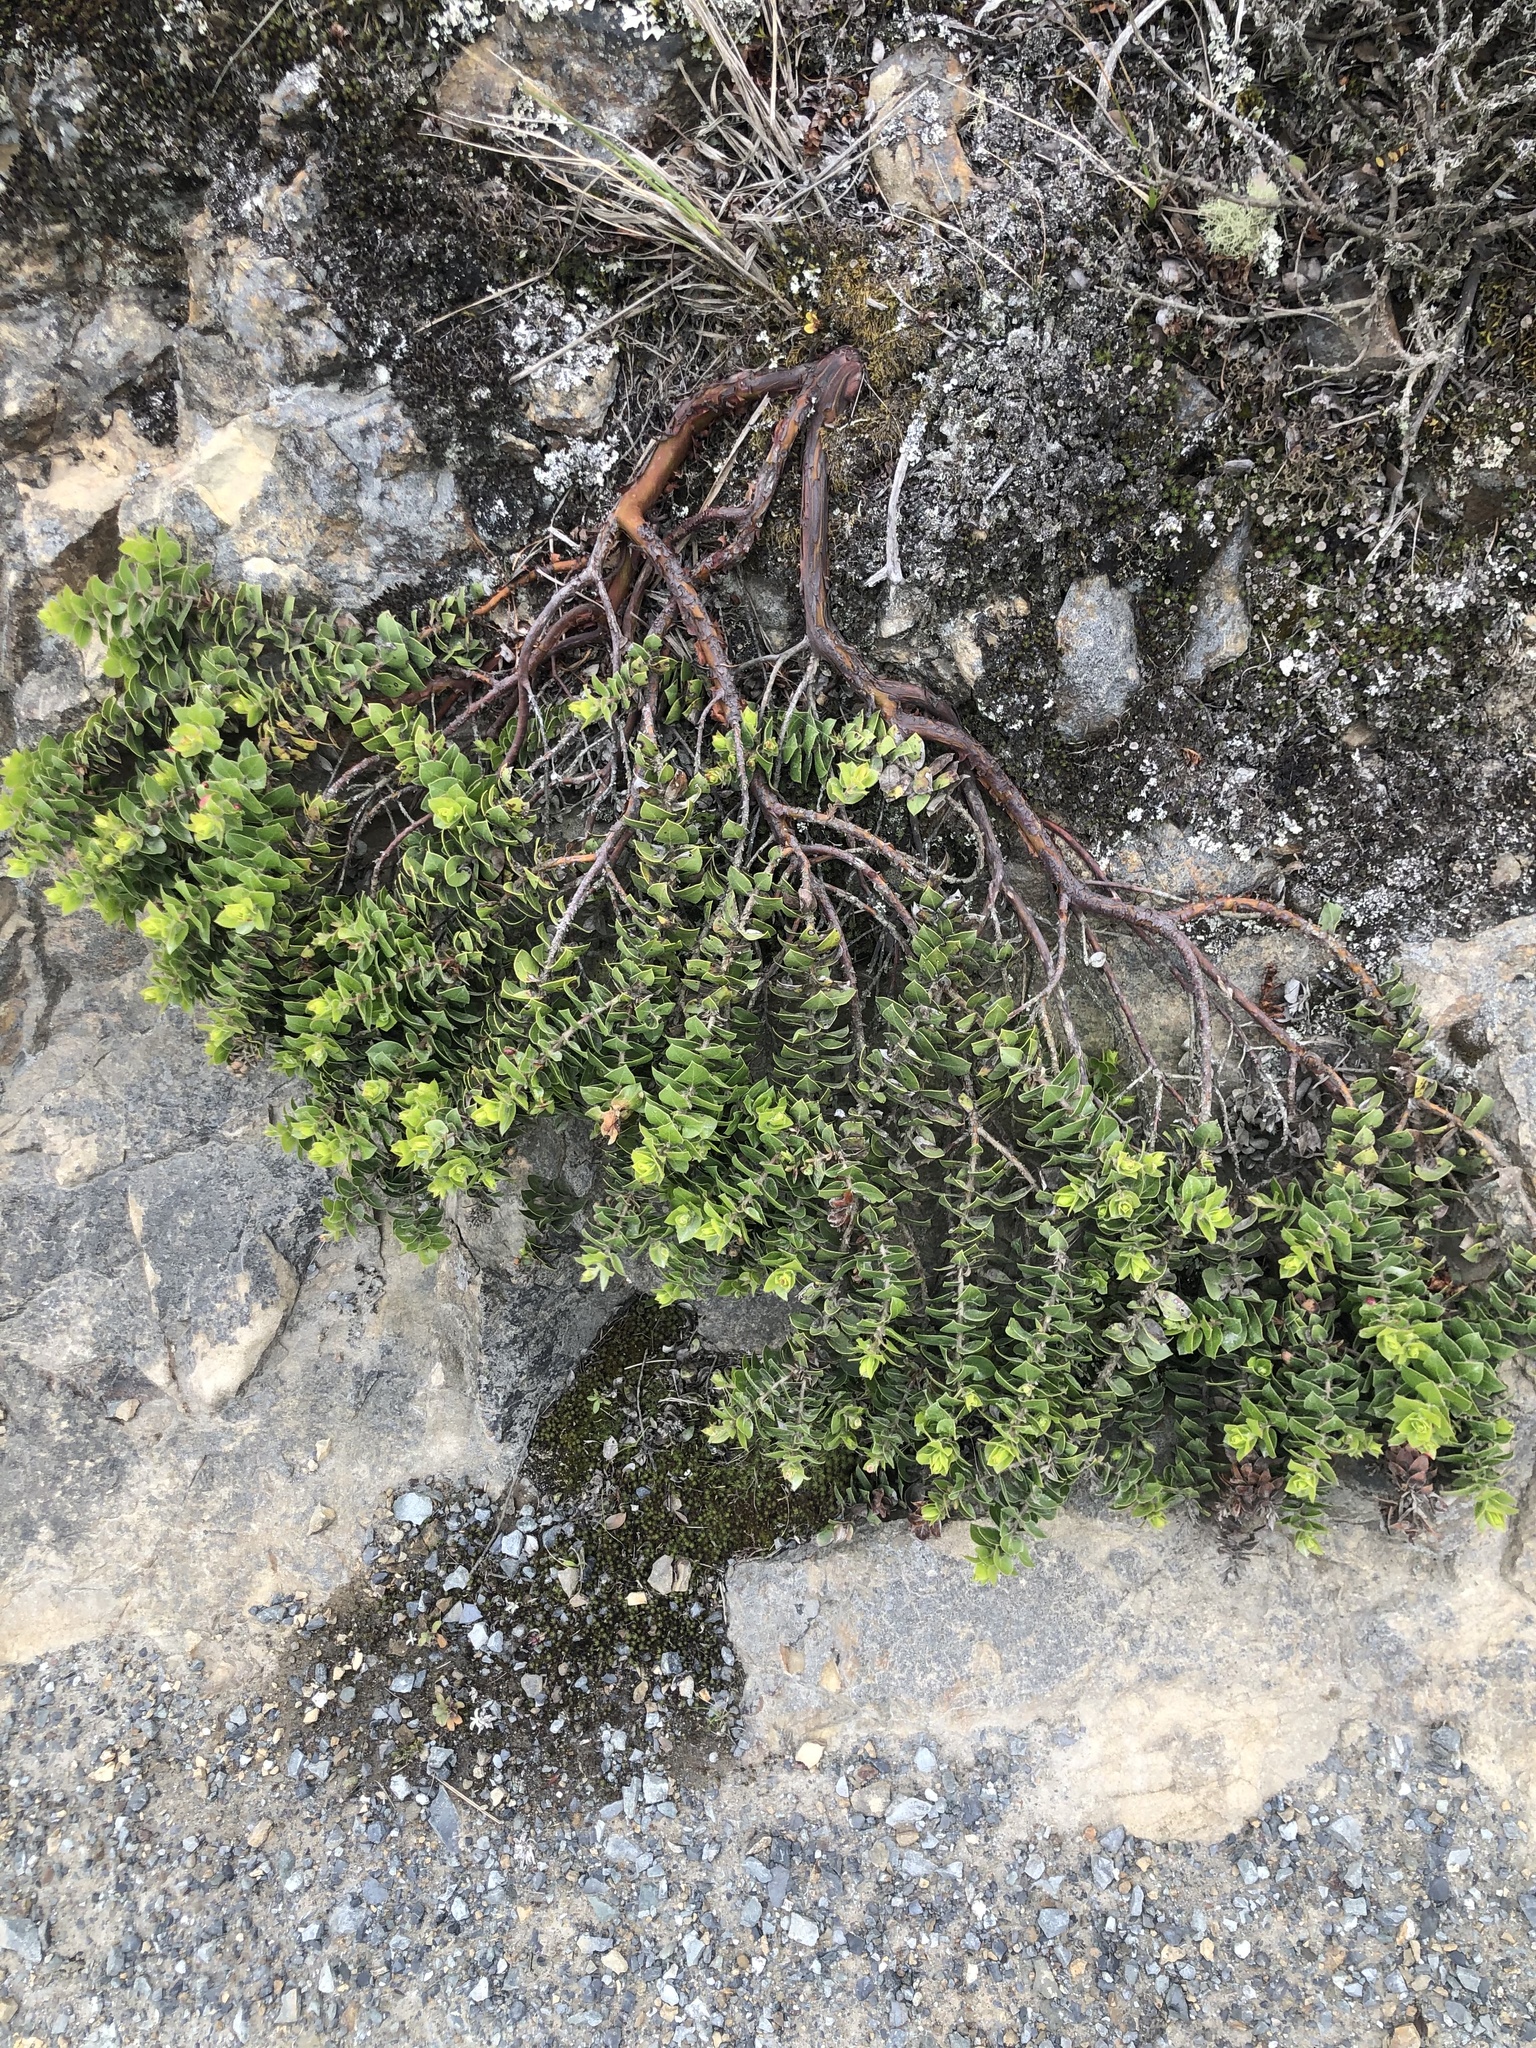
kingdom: Plantae
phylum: Tracheophyta
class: Magnoliopsida
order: Ericales
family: Ericaceae
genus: Arctostaphylos
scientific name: Arctostaphylos imbricata
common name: San bruno mountain manzanita
